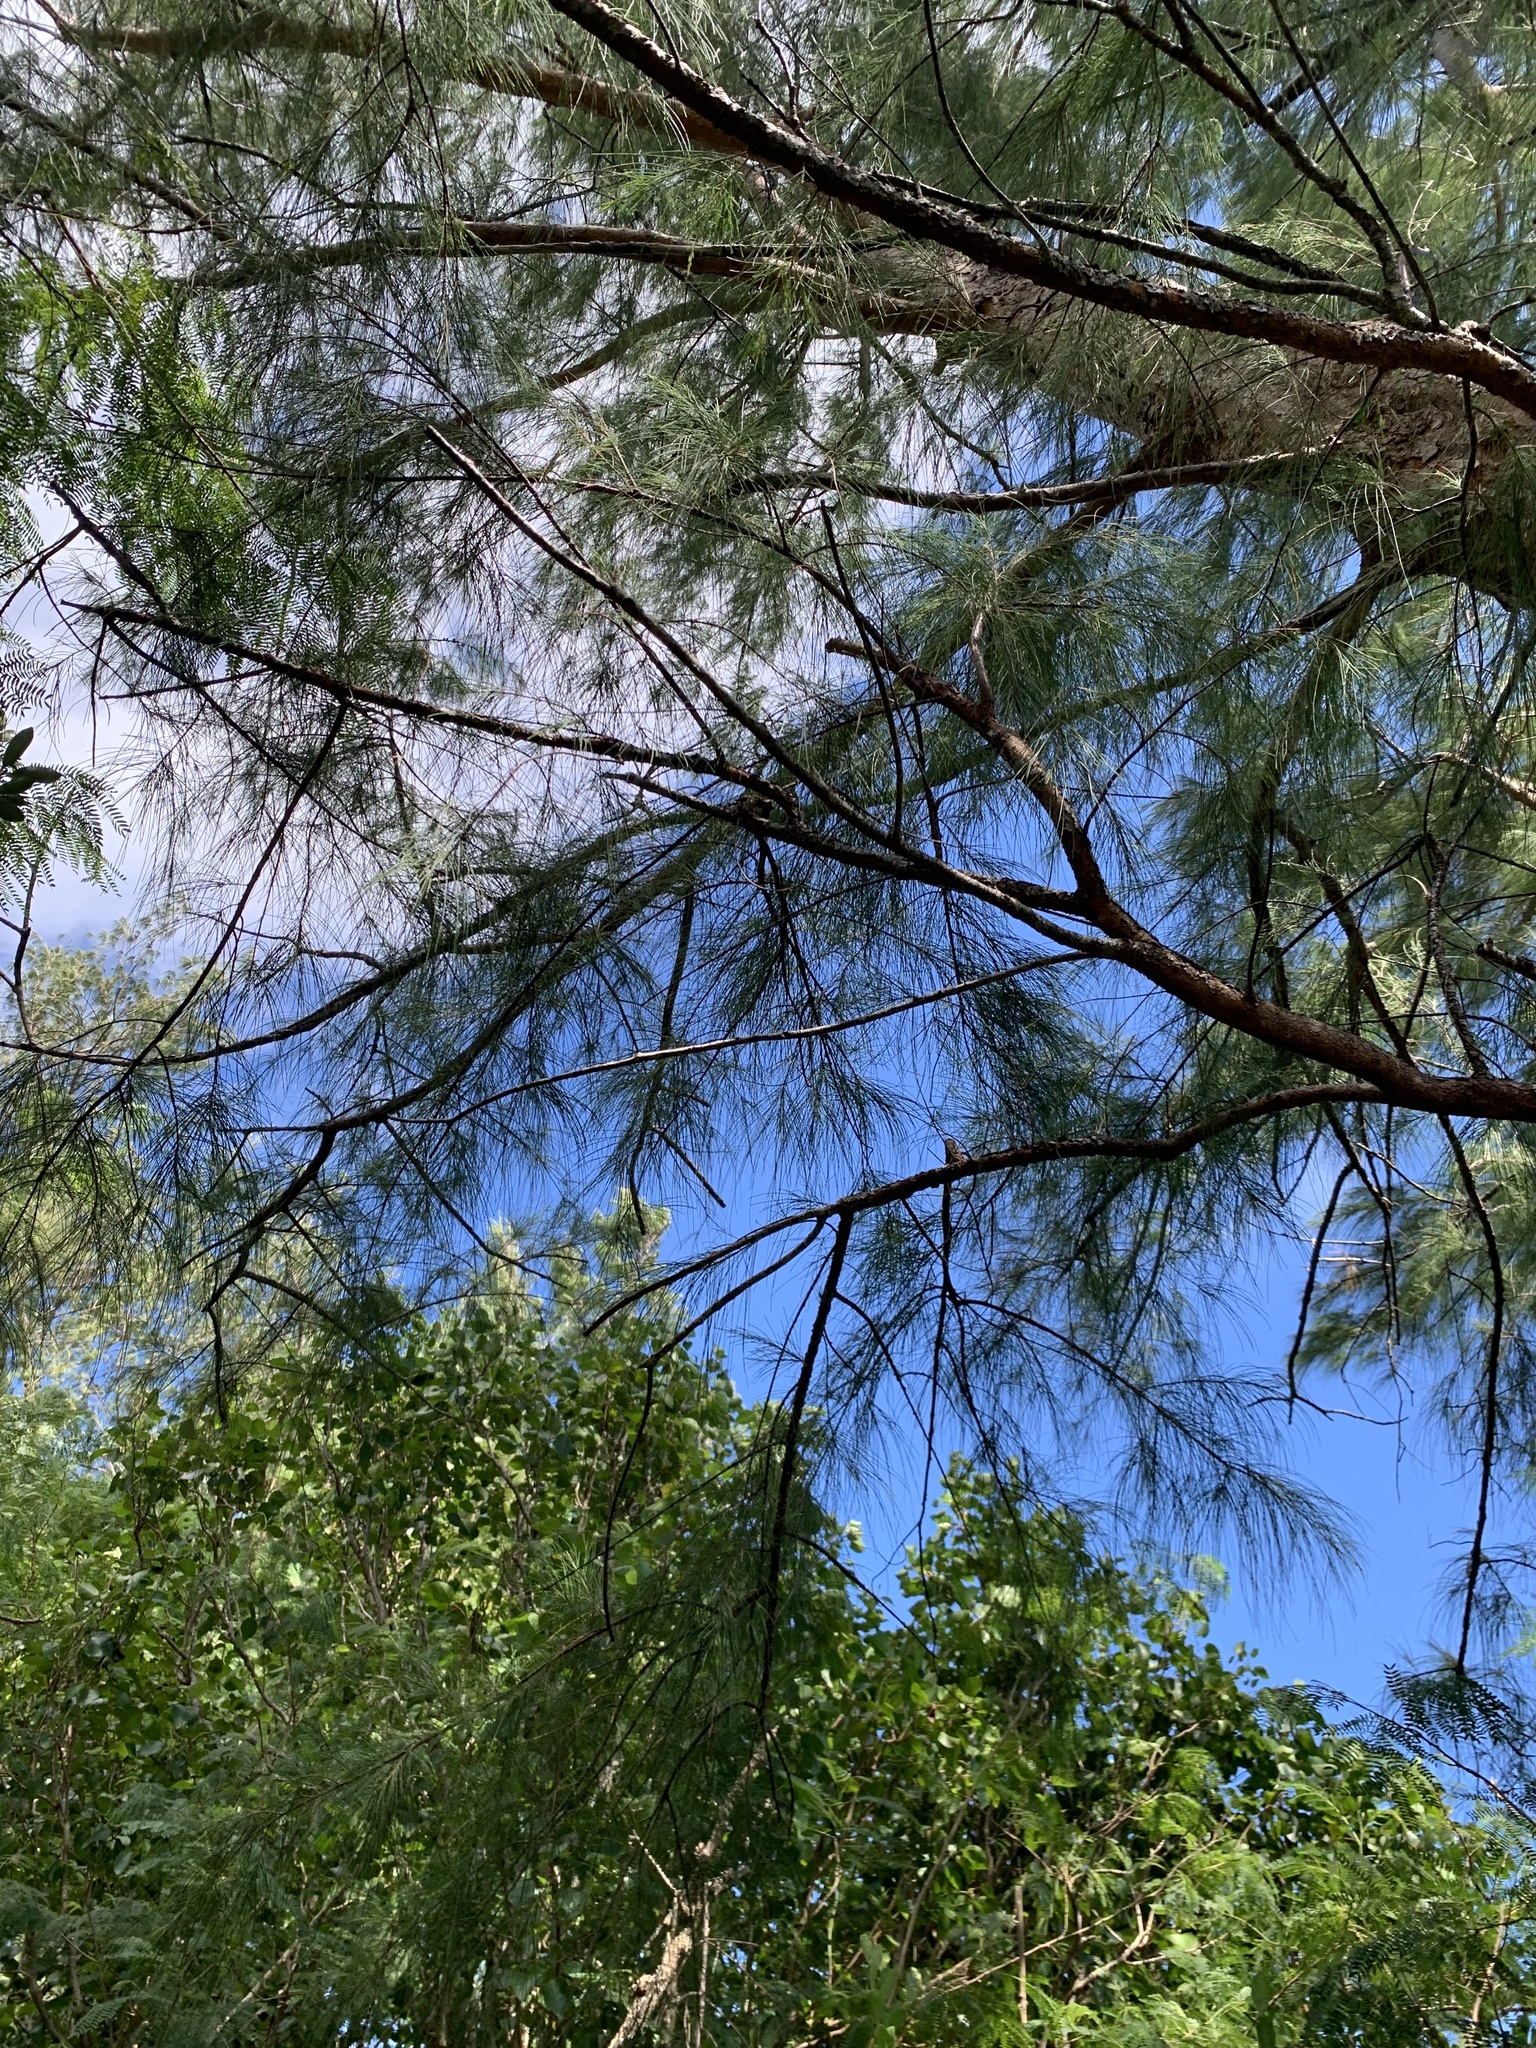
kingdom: Plantae
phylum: Tracheophyta
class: Magnoliopsida
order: Fagales
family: Casuarinaceae
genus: Casuarina
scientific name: Casuarina equisetifolia
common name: Beach sheoak
